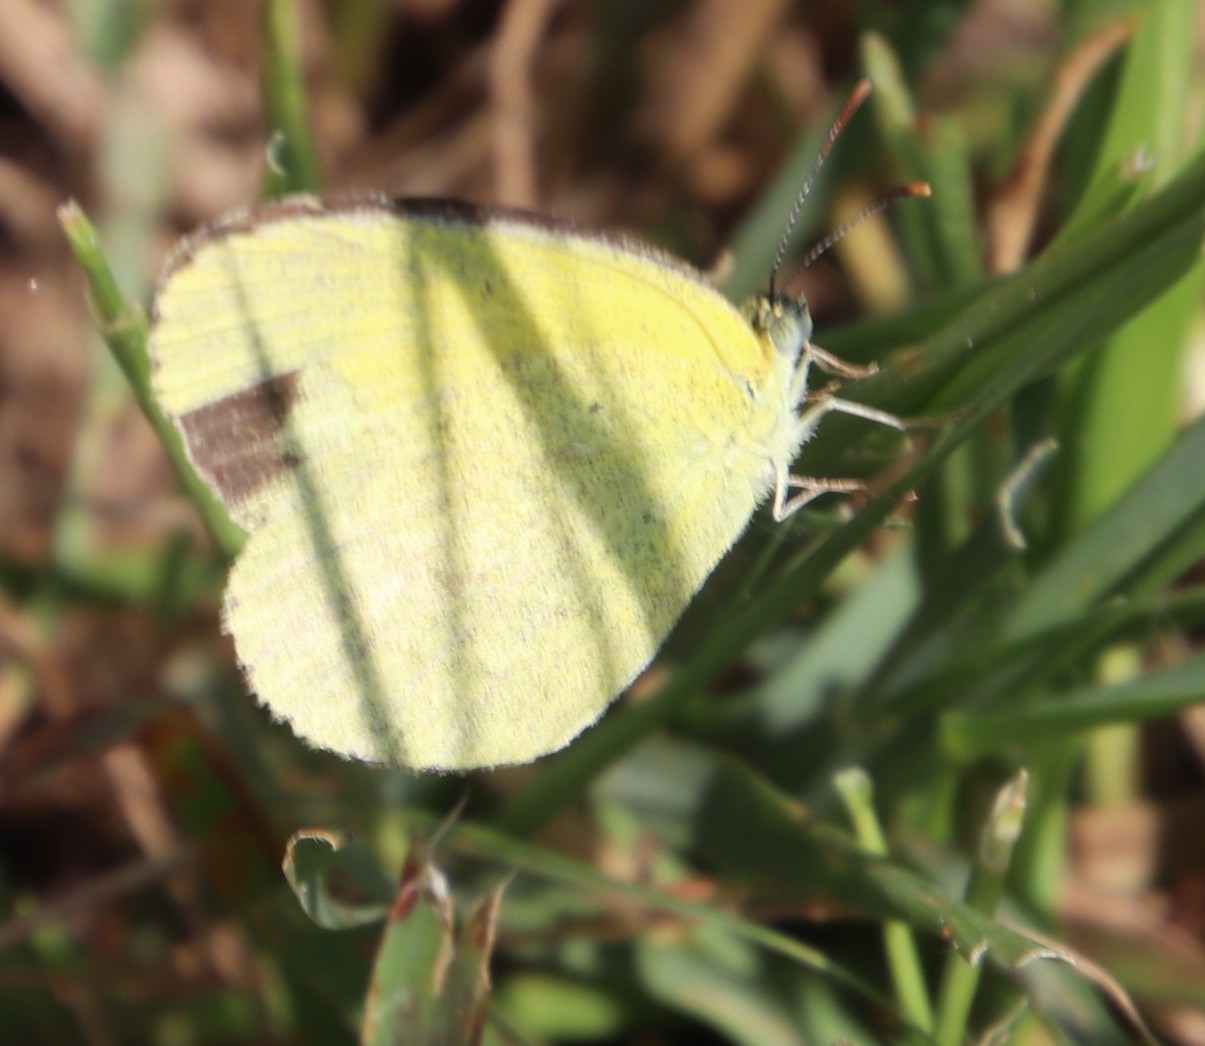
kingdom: Animalia
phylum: Arthropoda
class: Insecta
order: Lepidoptera
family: Pieridae
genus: Eurema
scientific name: Eurema brigitta
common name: Small grass yellow
